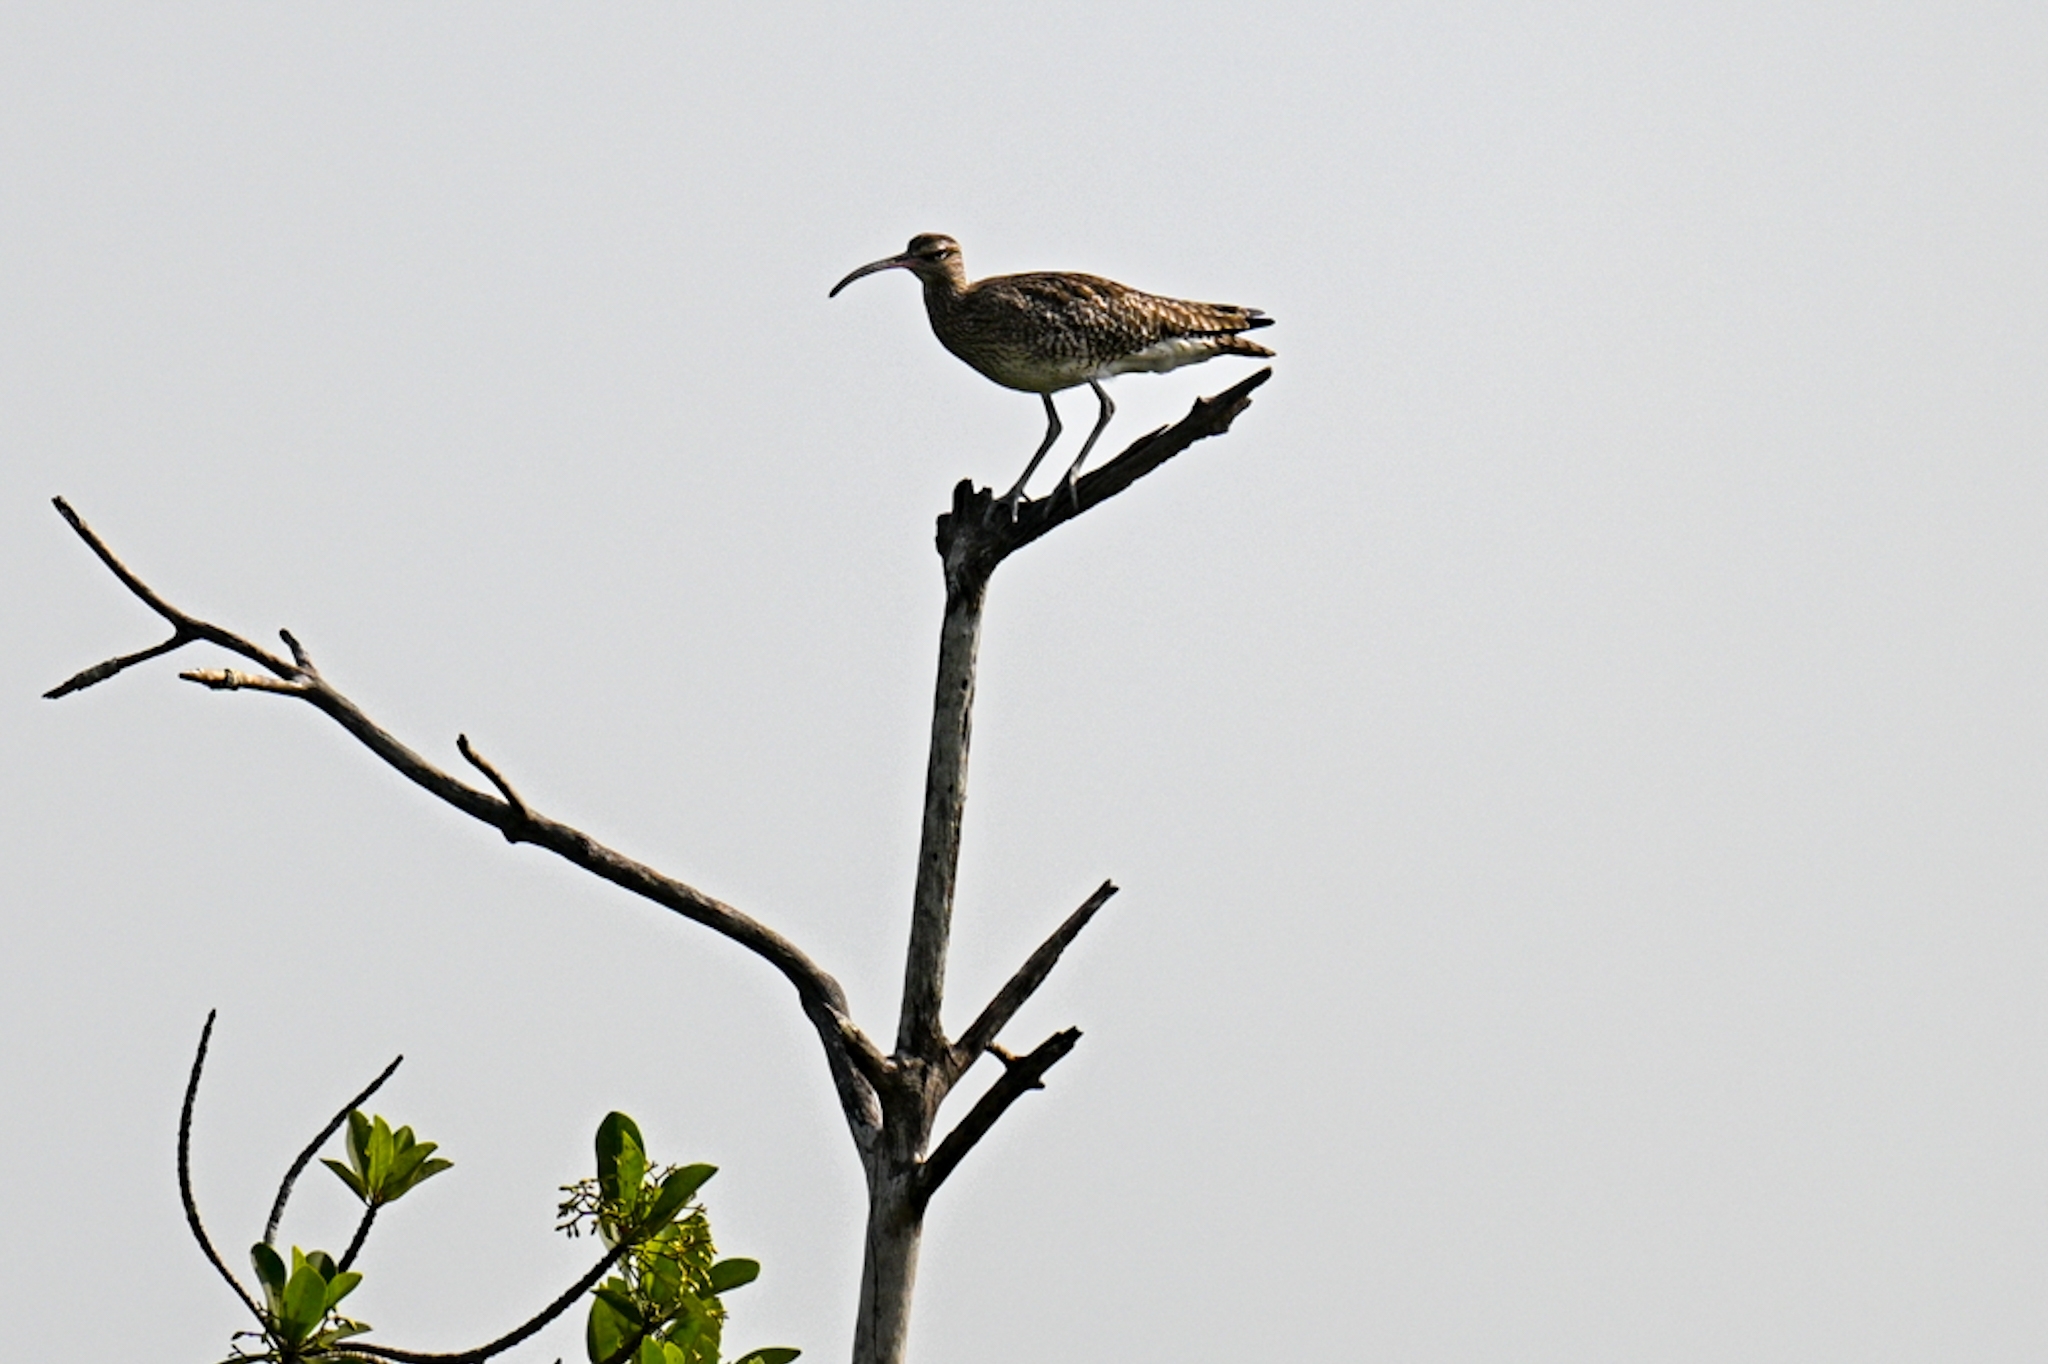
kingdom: Animalia
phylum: Chordata
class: Aves
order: Charadriiformes
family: Scolopacidae
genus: Numenius
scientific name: Numenius phaeopus
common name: Whimbrel
